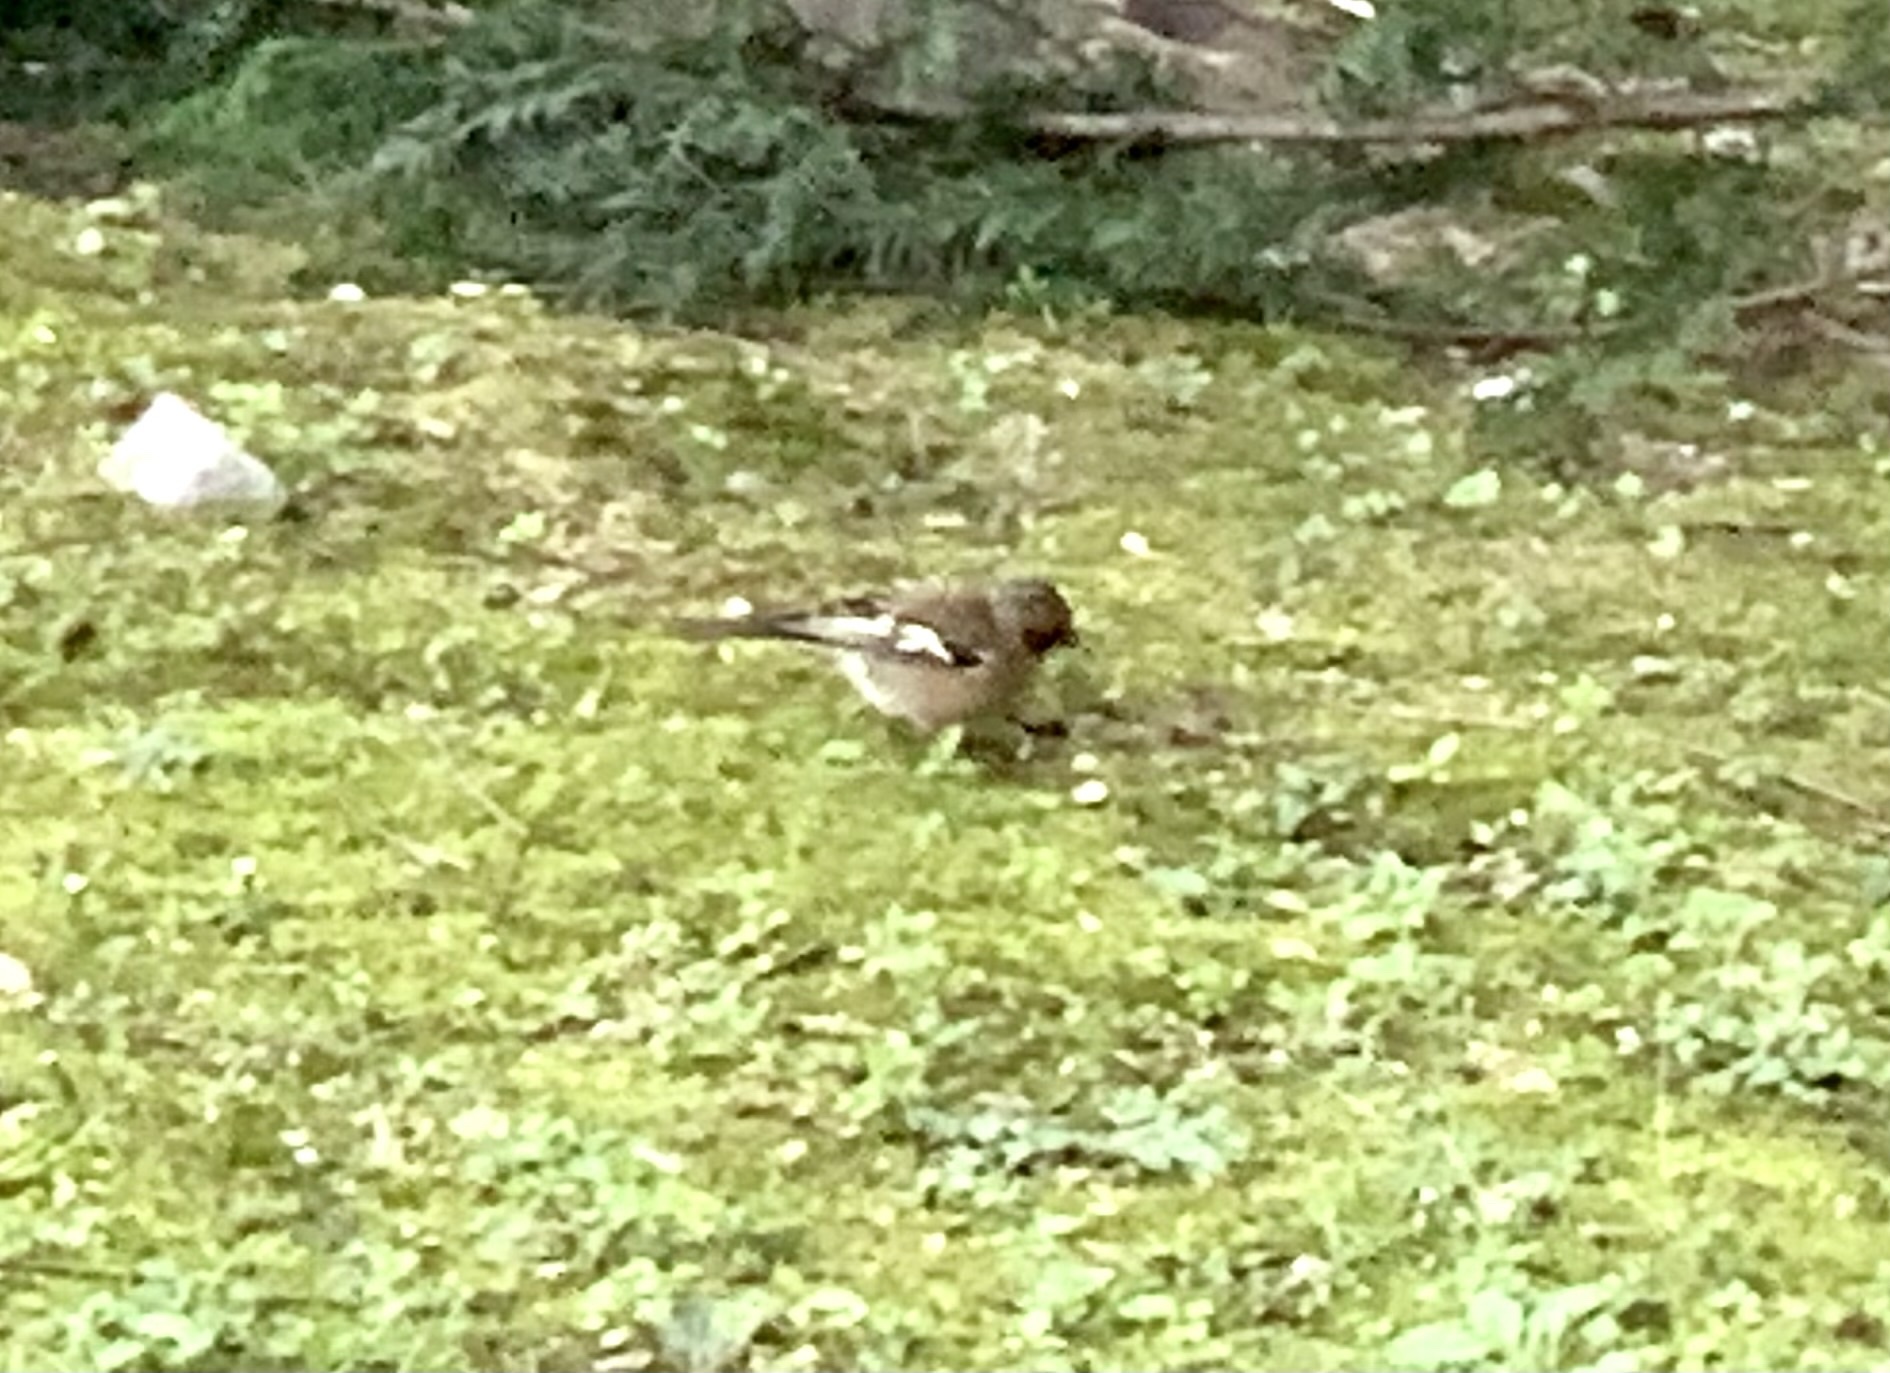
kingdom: Animalia
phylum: Chordata
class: Aves
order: Passeriformes
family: Fringillidae
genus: Fringilla
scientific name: Fringilla coelebs
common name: Common chaffinch
